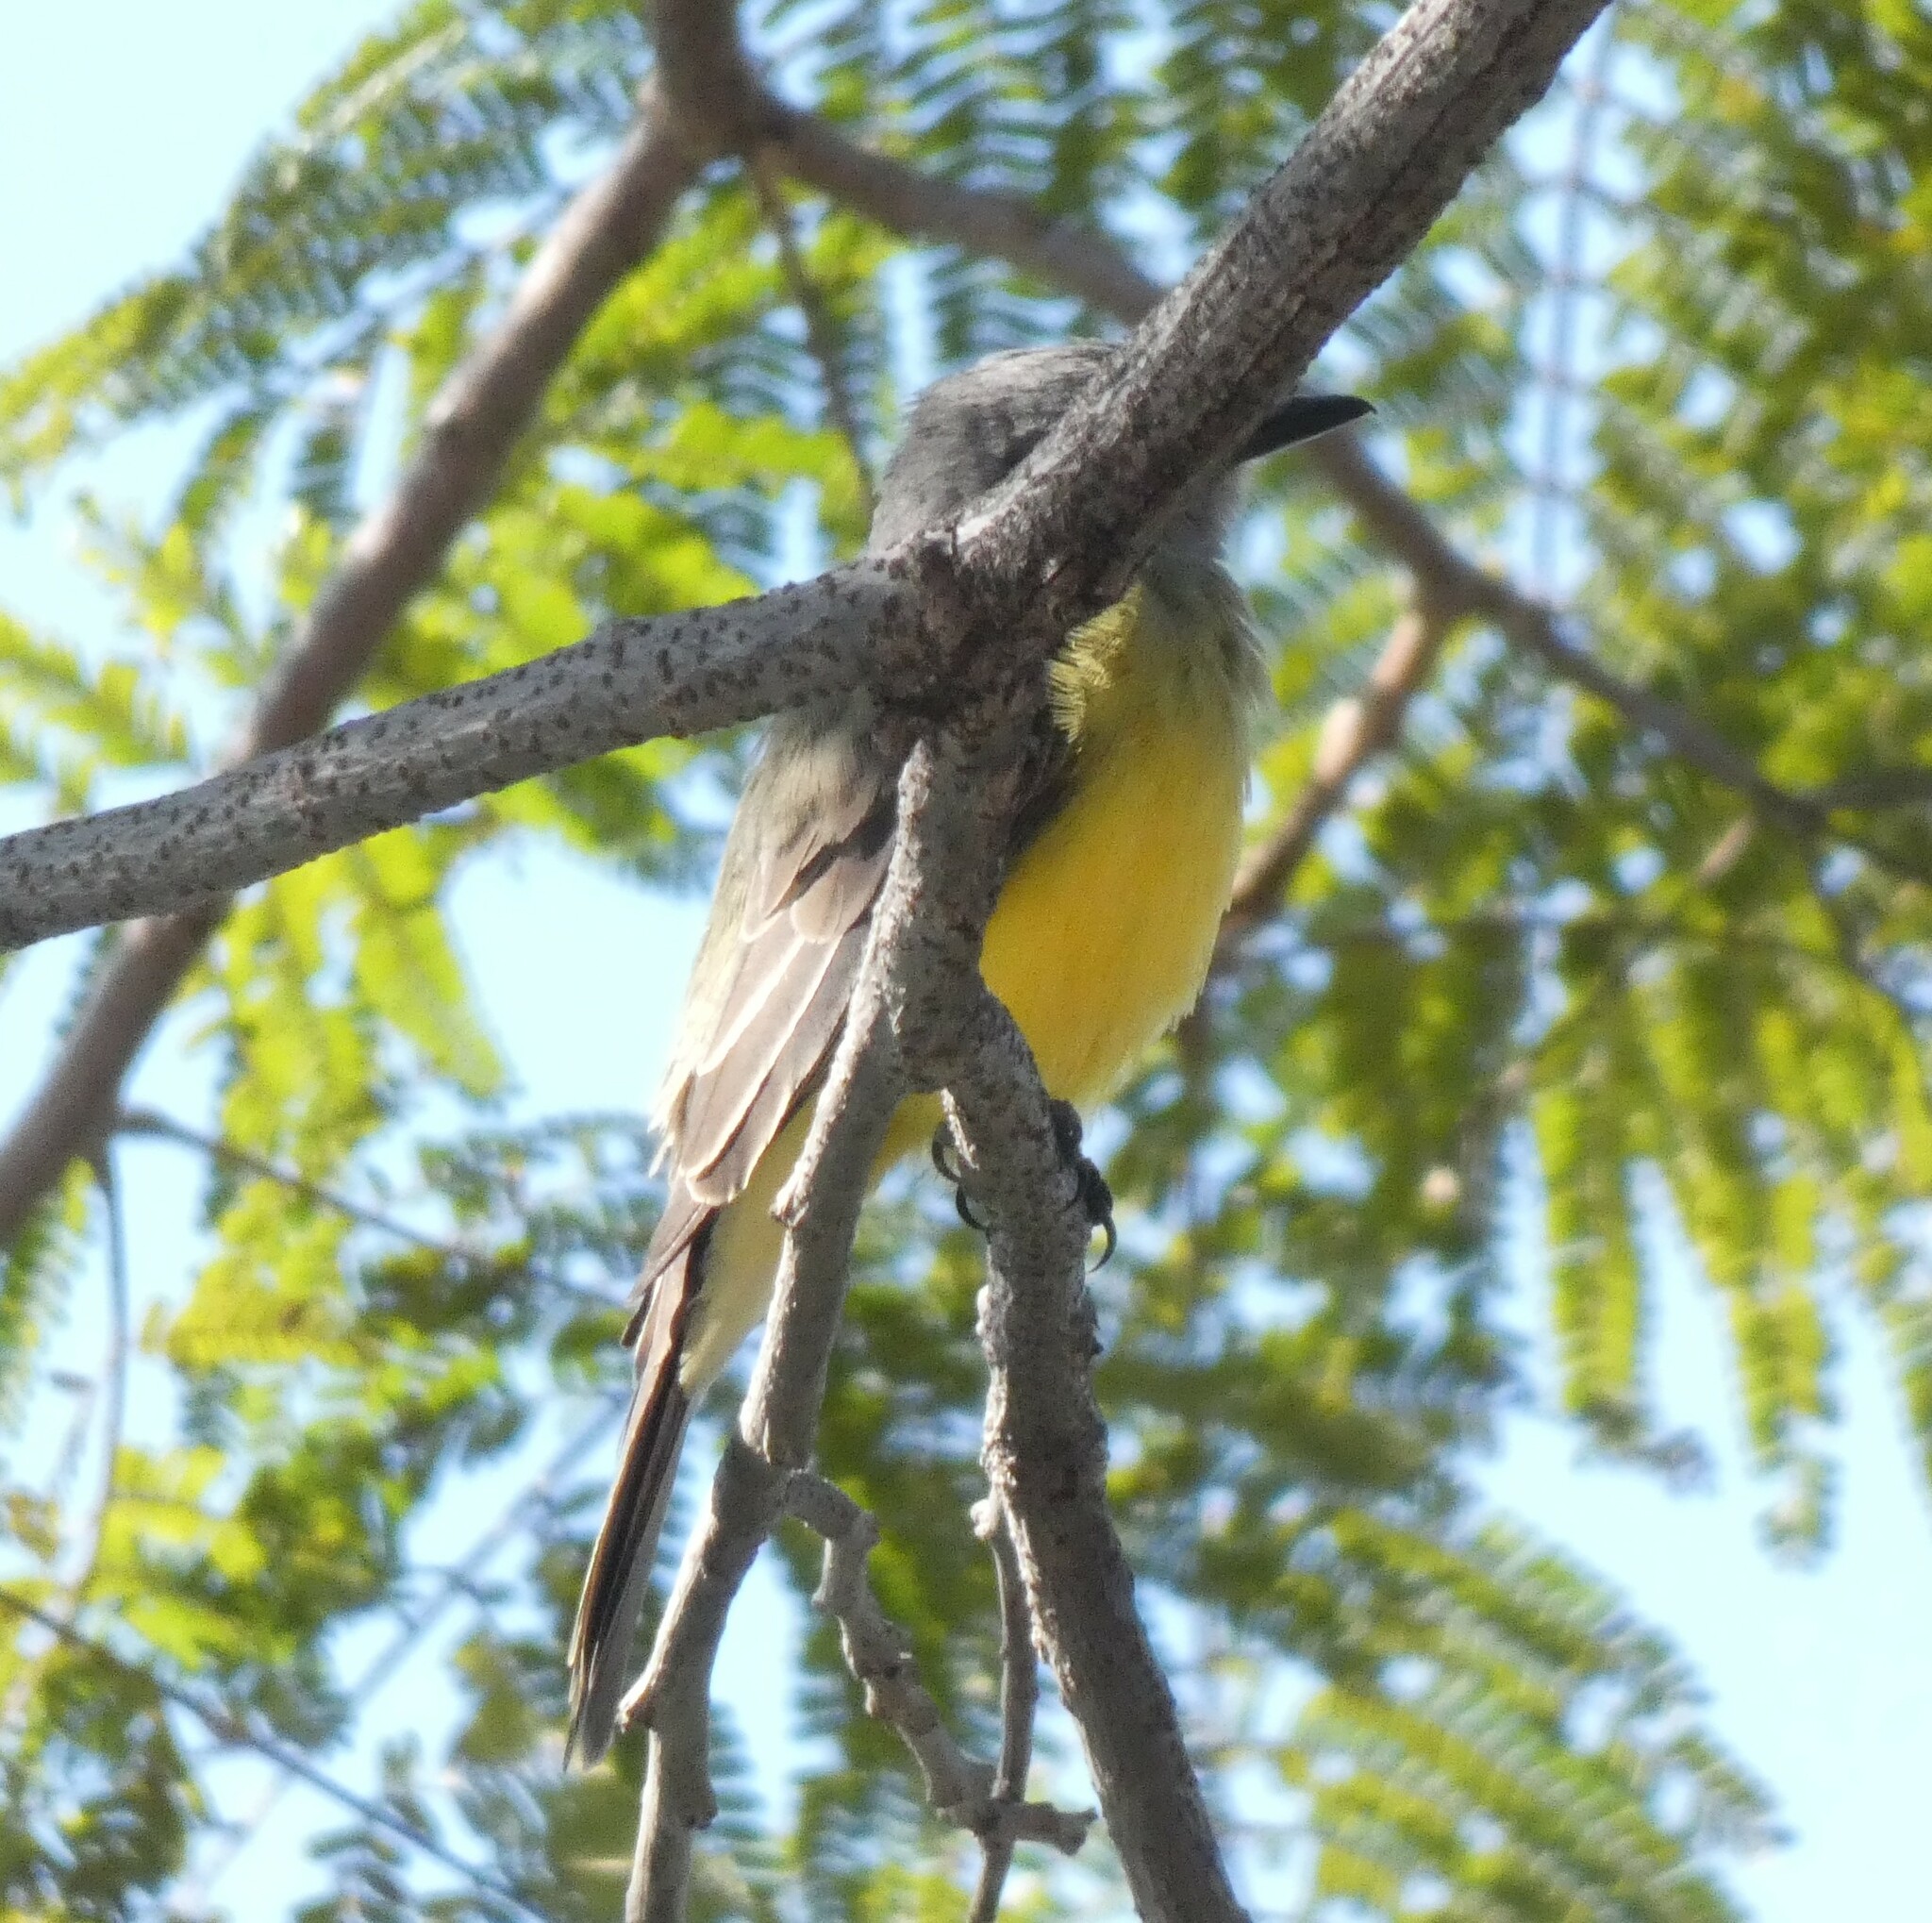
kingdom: Animalia
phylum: Chordata
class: Aves
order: Passeriformes
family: Tyrannidae
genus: Tyrannus
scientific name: Tyrannus melancholicus
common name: Tropical kingbird
